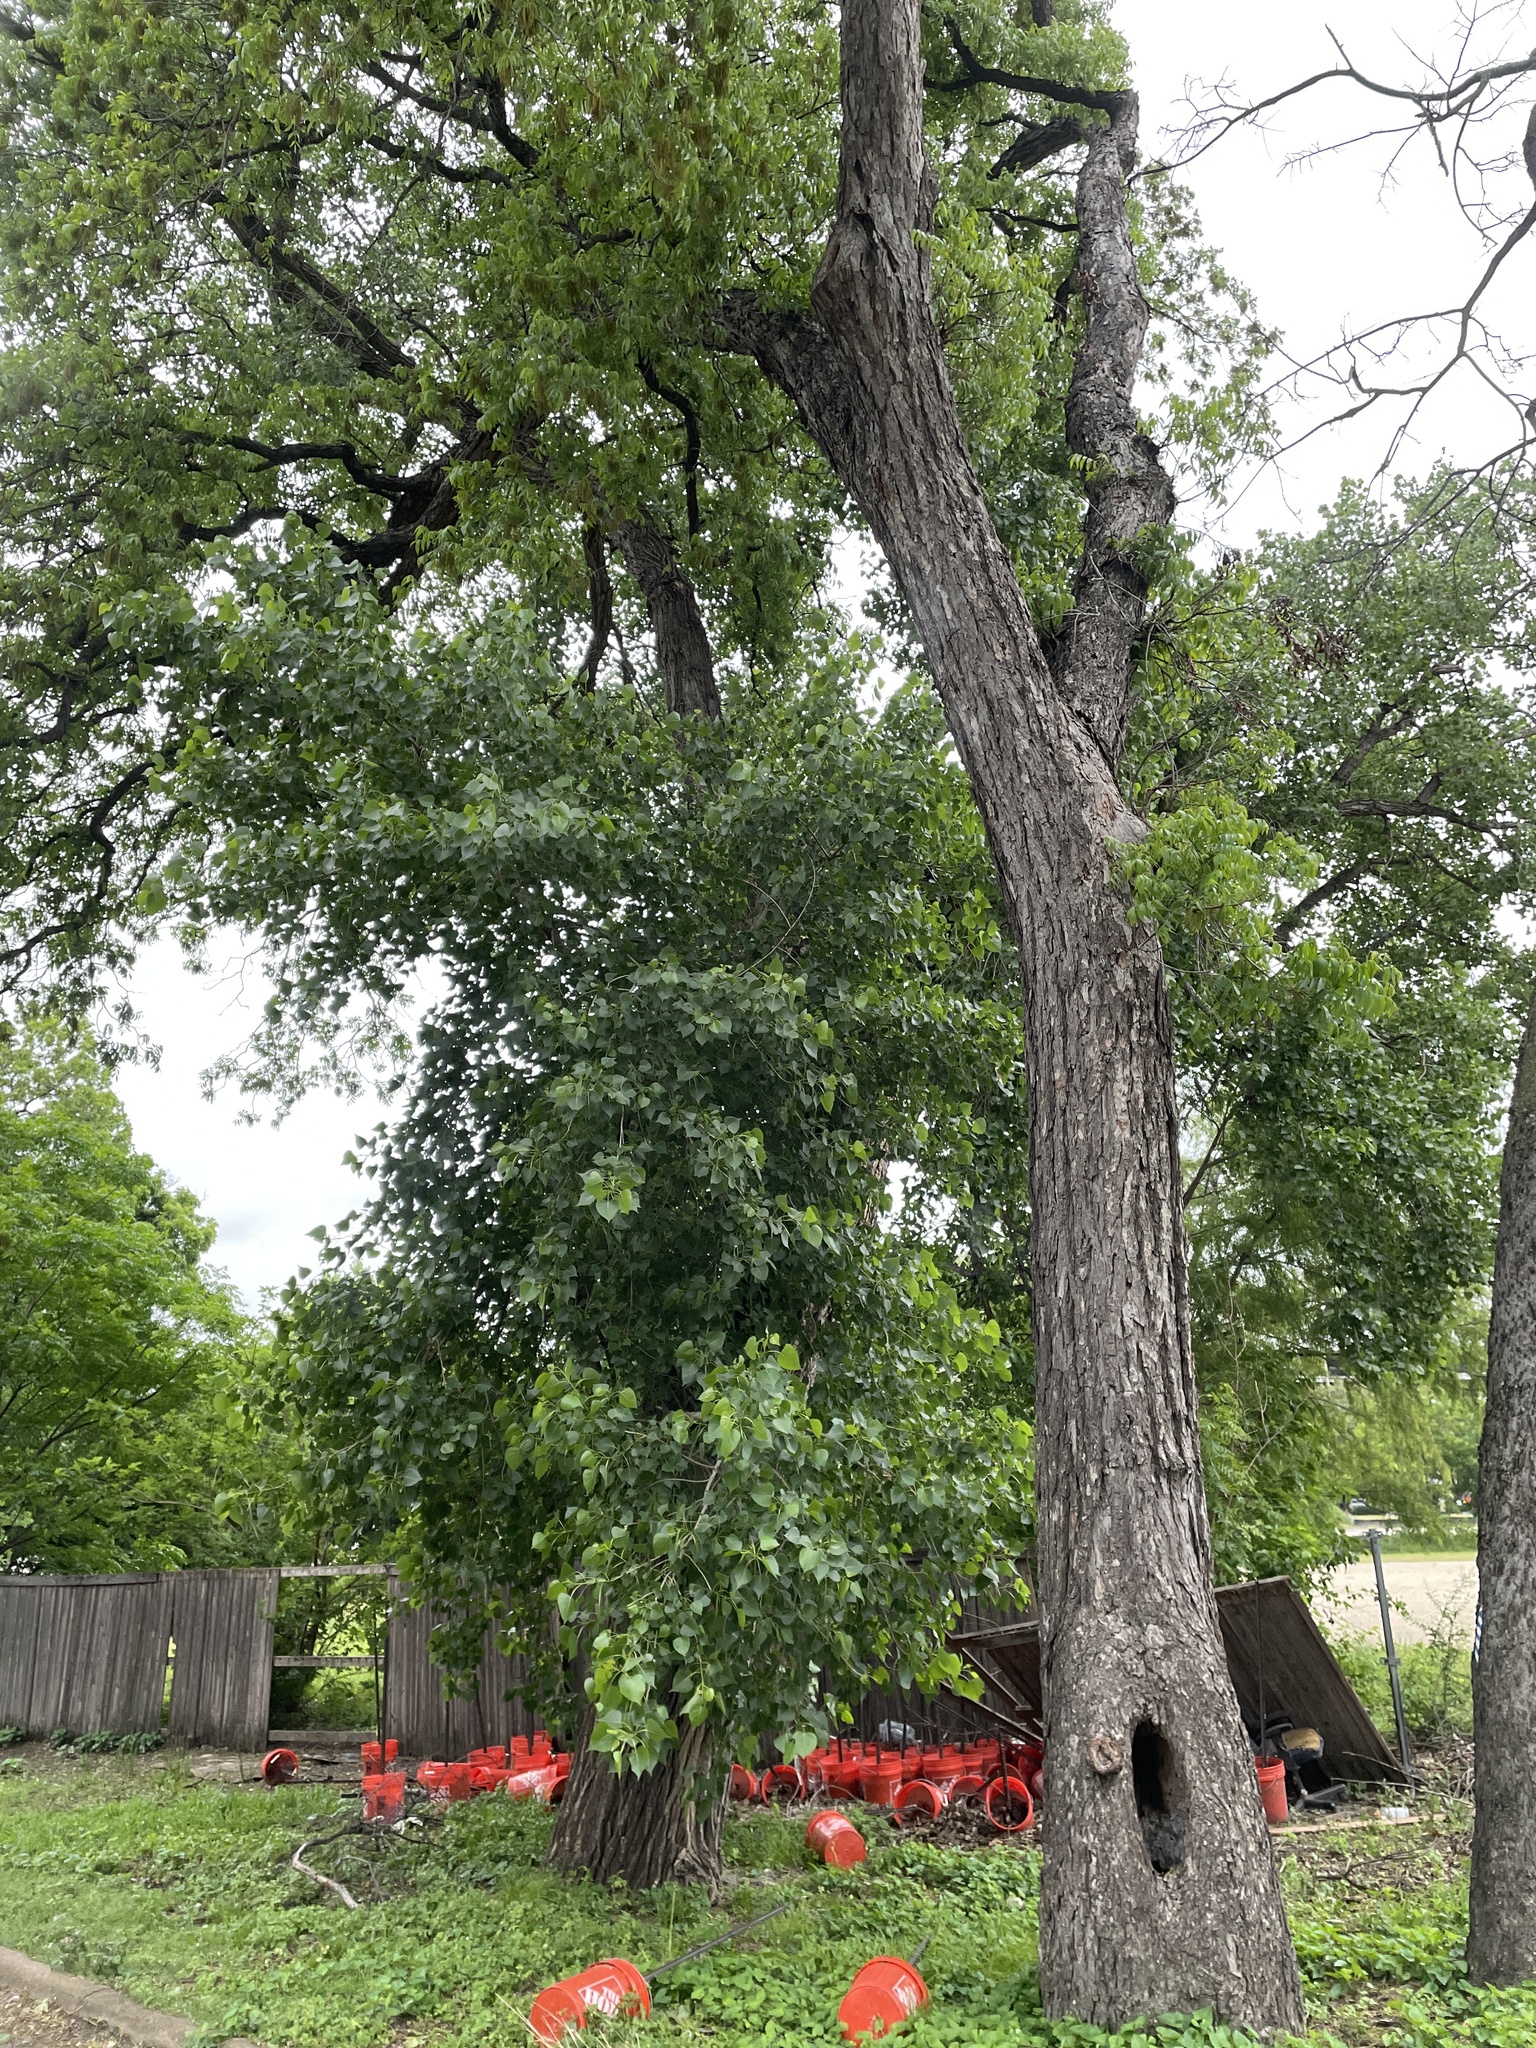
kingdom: Plantae
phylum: Tracheophyta
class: Magnoliopsida
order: Malpighiales
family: Salicaceae
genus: Populus
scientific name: Populus deltoides
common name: Eastern cottonwood
